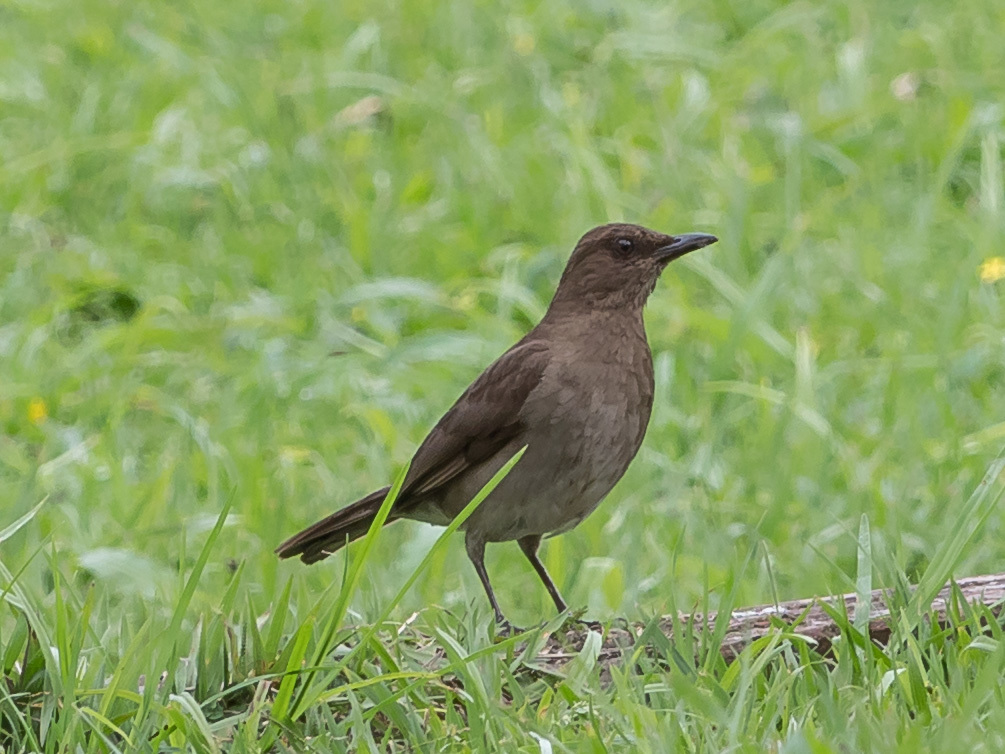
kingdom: Animalia
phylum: Chordata
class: Aves
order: Passeriformes
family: Turdidae
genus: Turdus
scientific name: Turdus ignobilis
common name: Black-billed thrush
